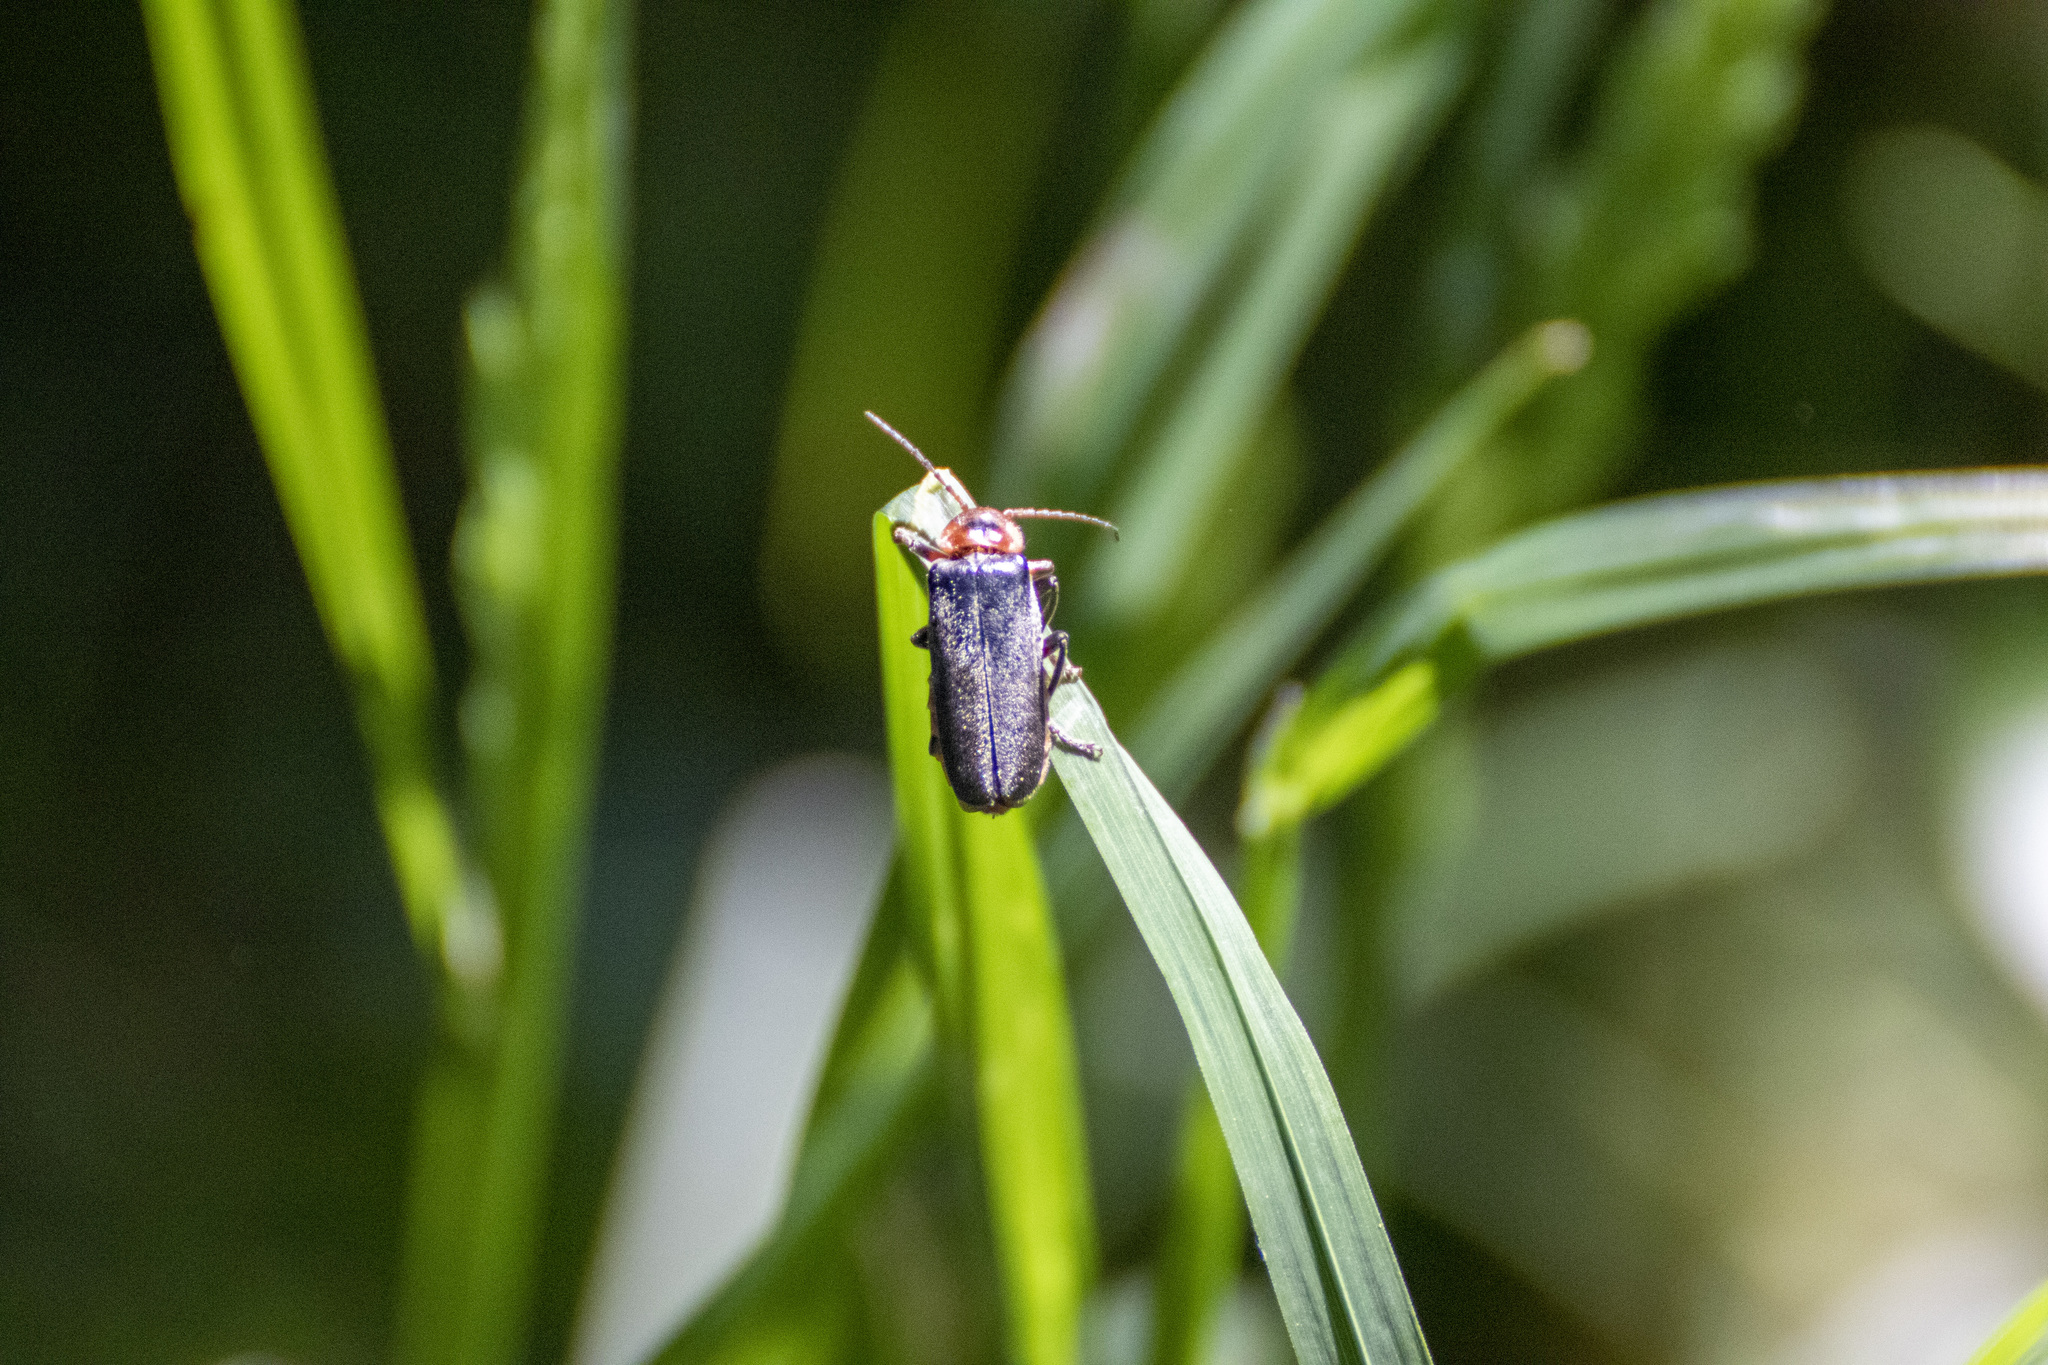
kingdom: Animalia
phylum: Arthropoda
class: Insecta
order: Coleoptera
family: Cantharidae
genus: Cantharis
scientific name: Cantharis rustica
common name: Soldier beetle
